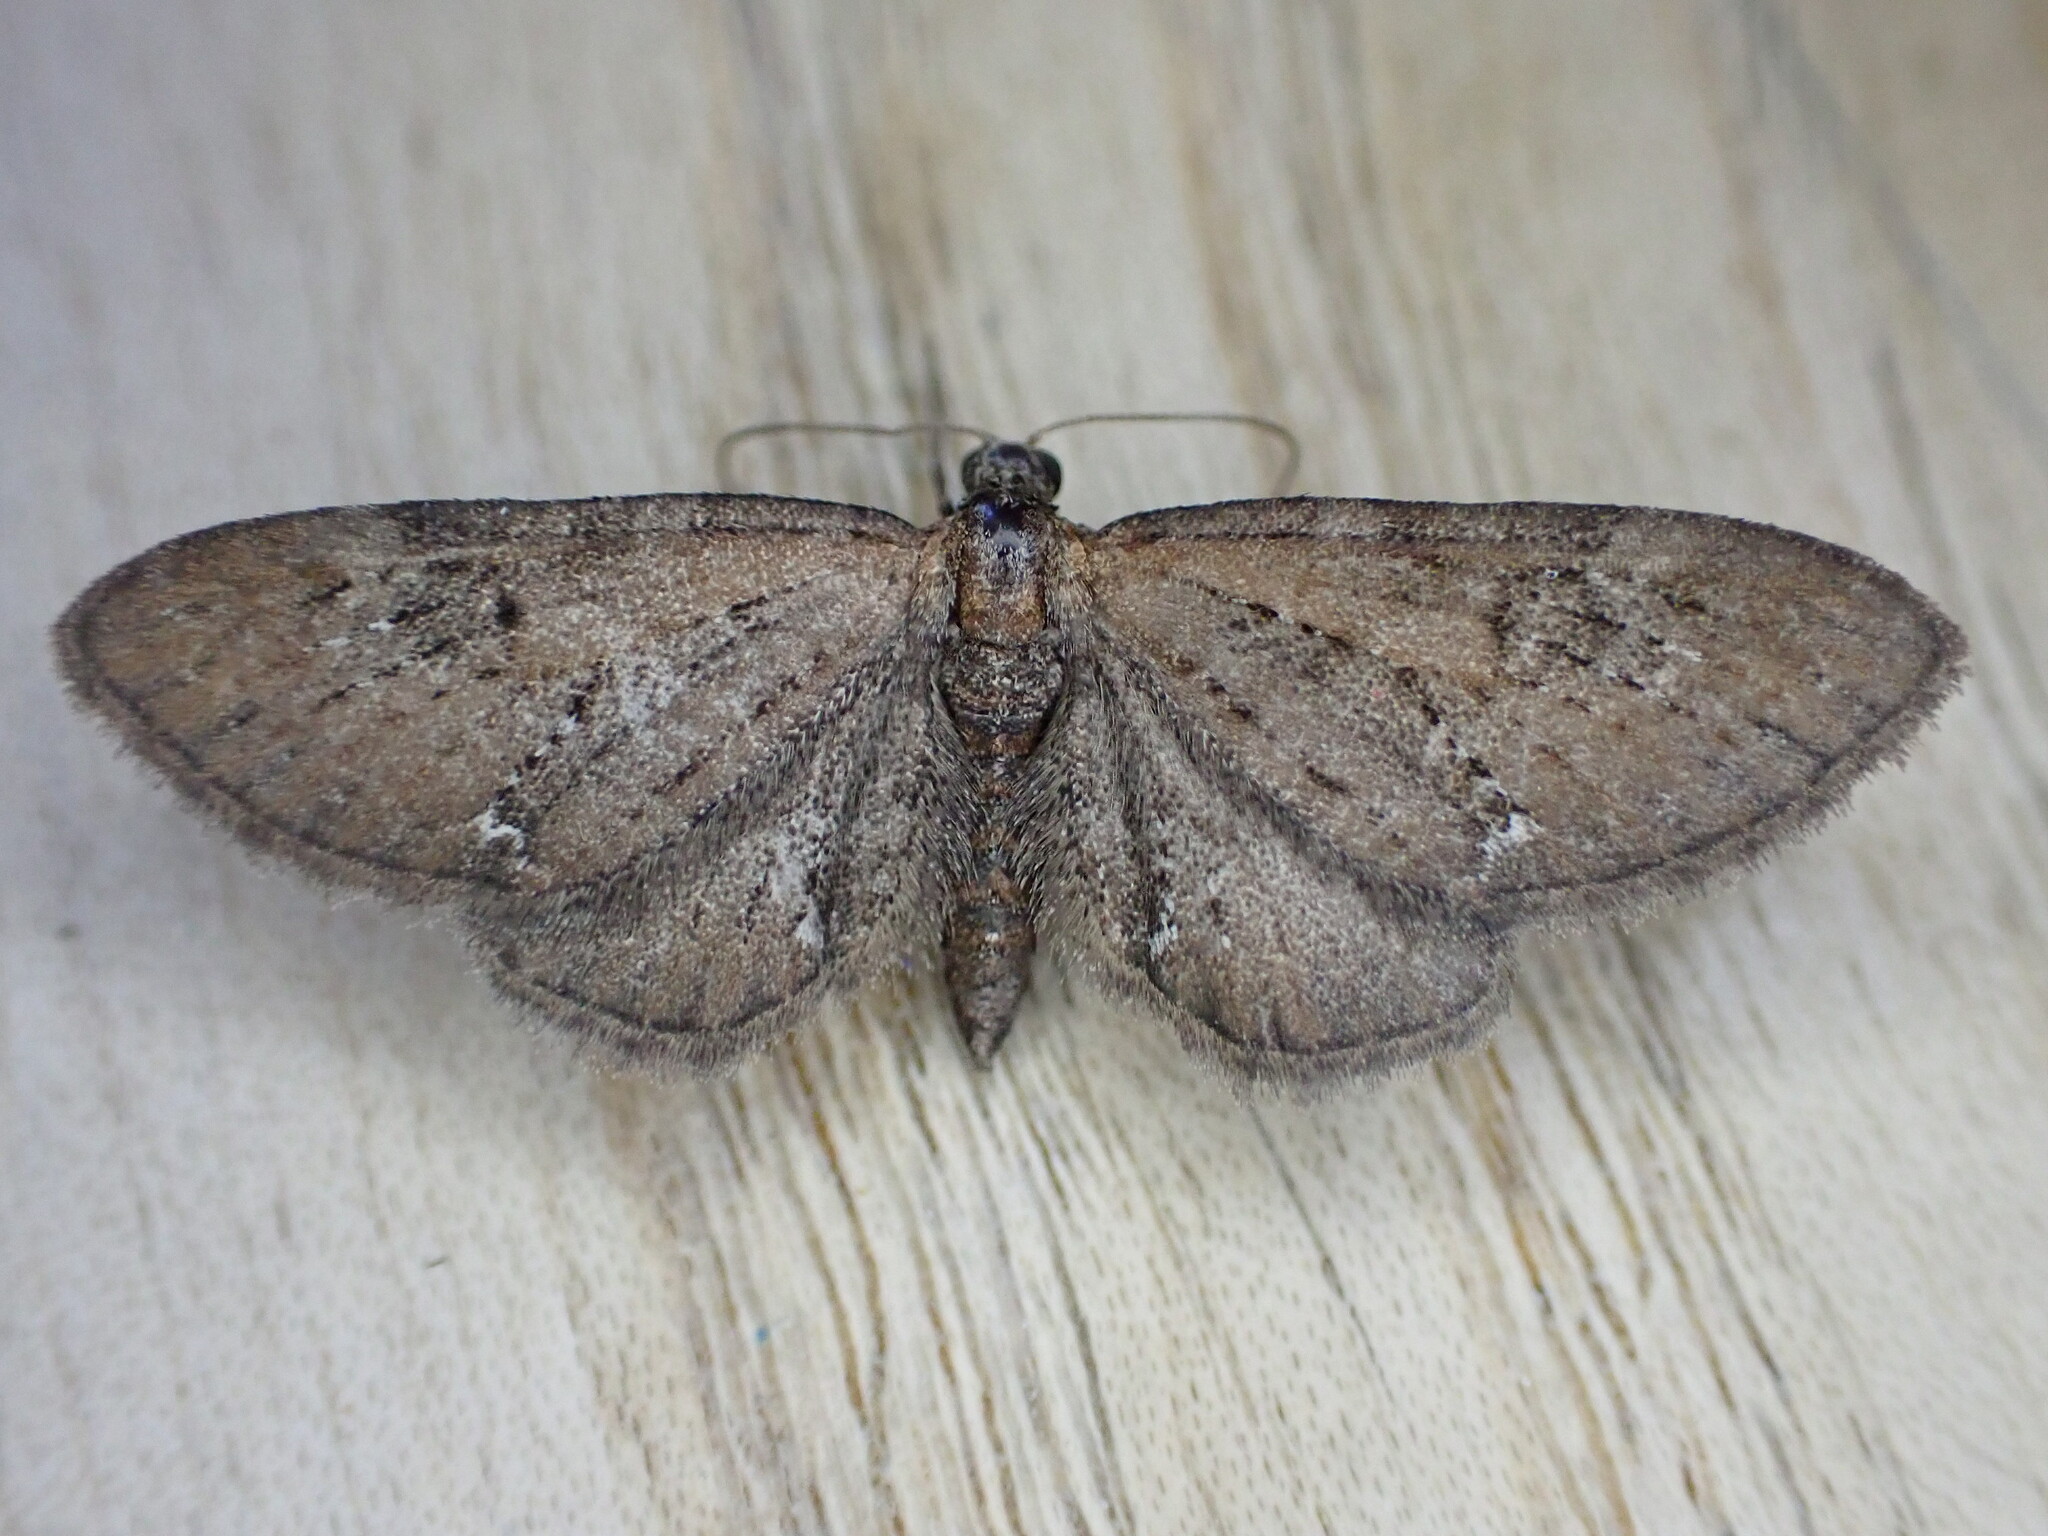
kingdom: Animalia
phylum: Arthropoda
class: Insecta
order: Lepidoptera
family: Geometridae
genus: Eupithecia
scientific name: Eupithecia vulgata
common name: Common pug
